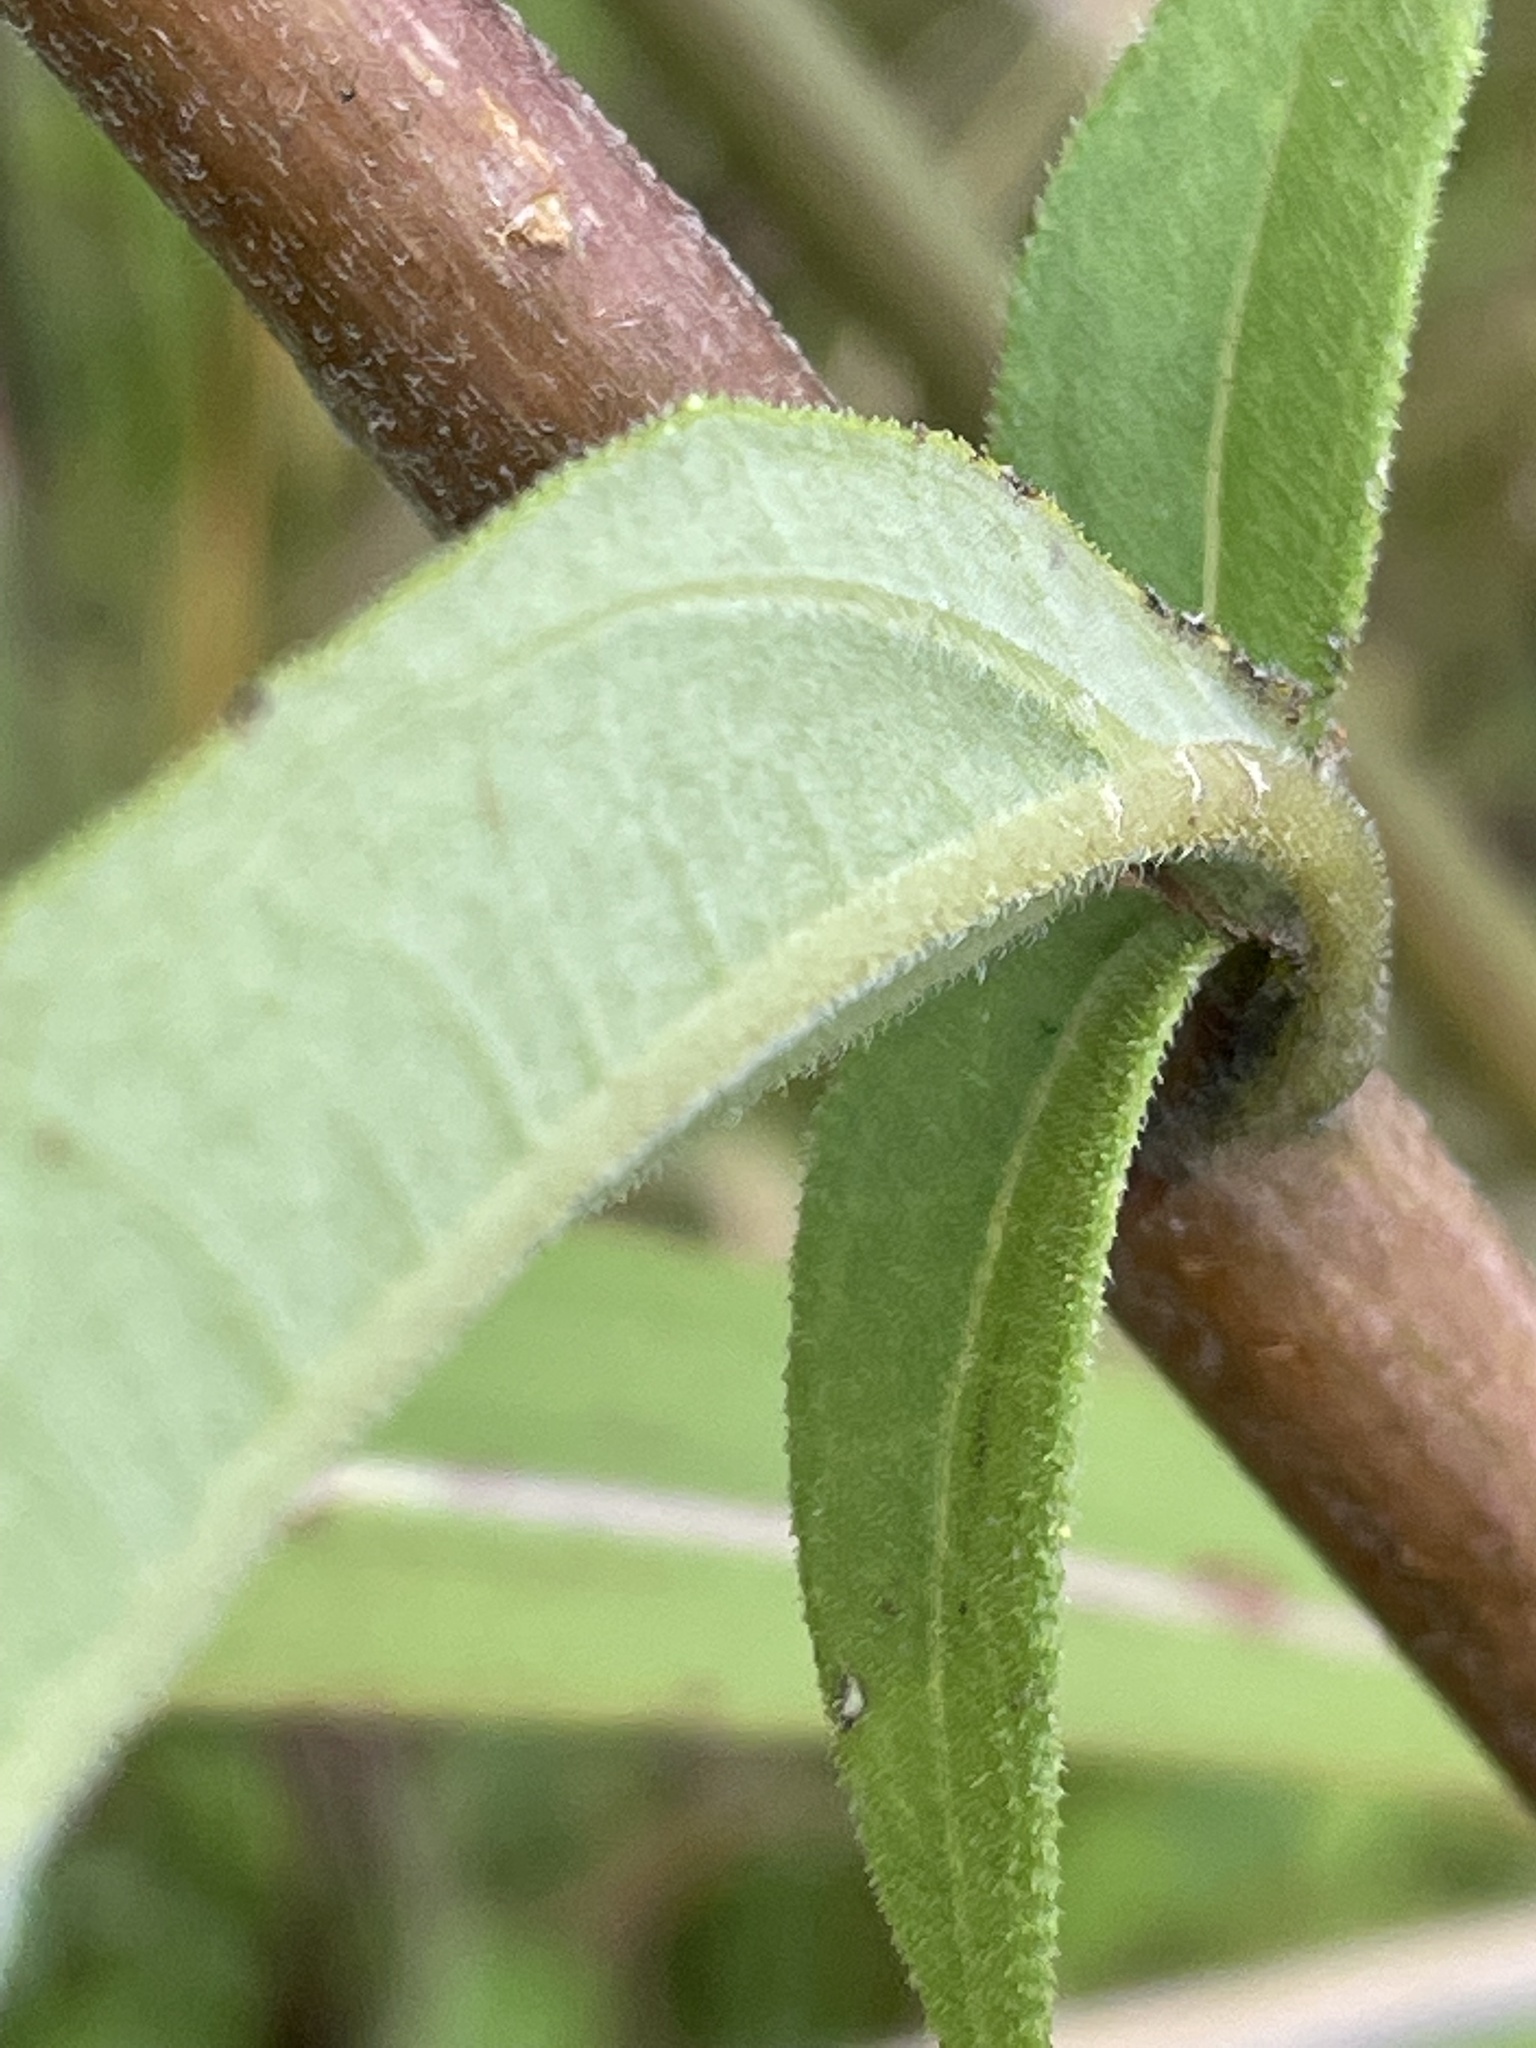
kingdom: Plantae
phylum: Tracheophyta
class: Magnoliopsida
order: Asterales
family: Asteraceae
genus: Helianthus
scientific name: Helianthus schweinitzii
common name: Schweinitz's sunflower
